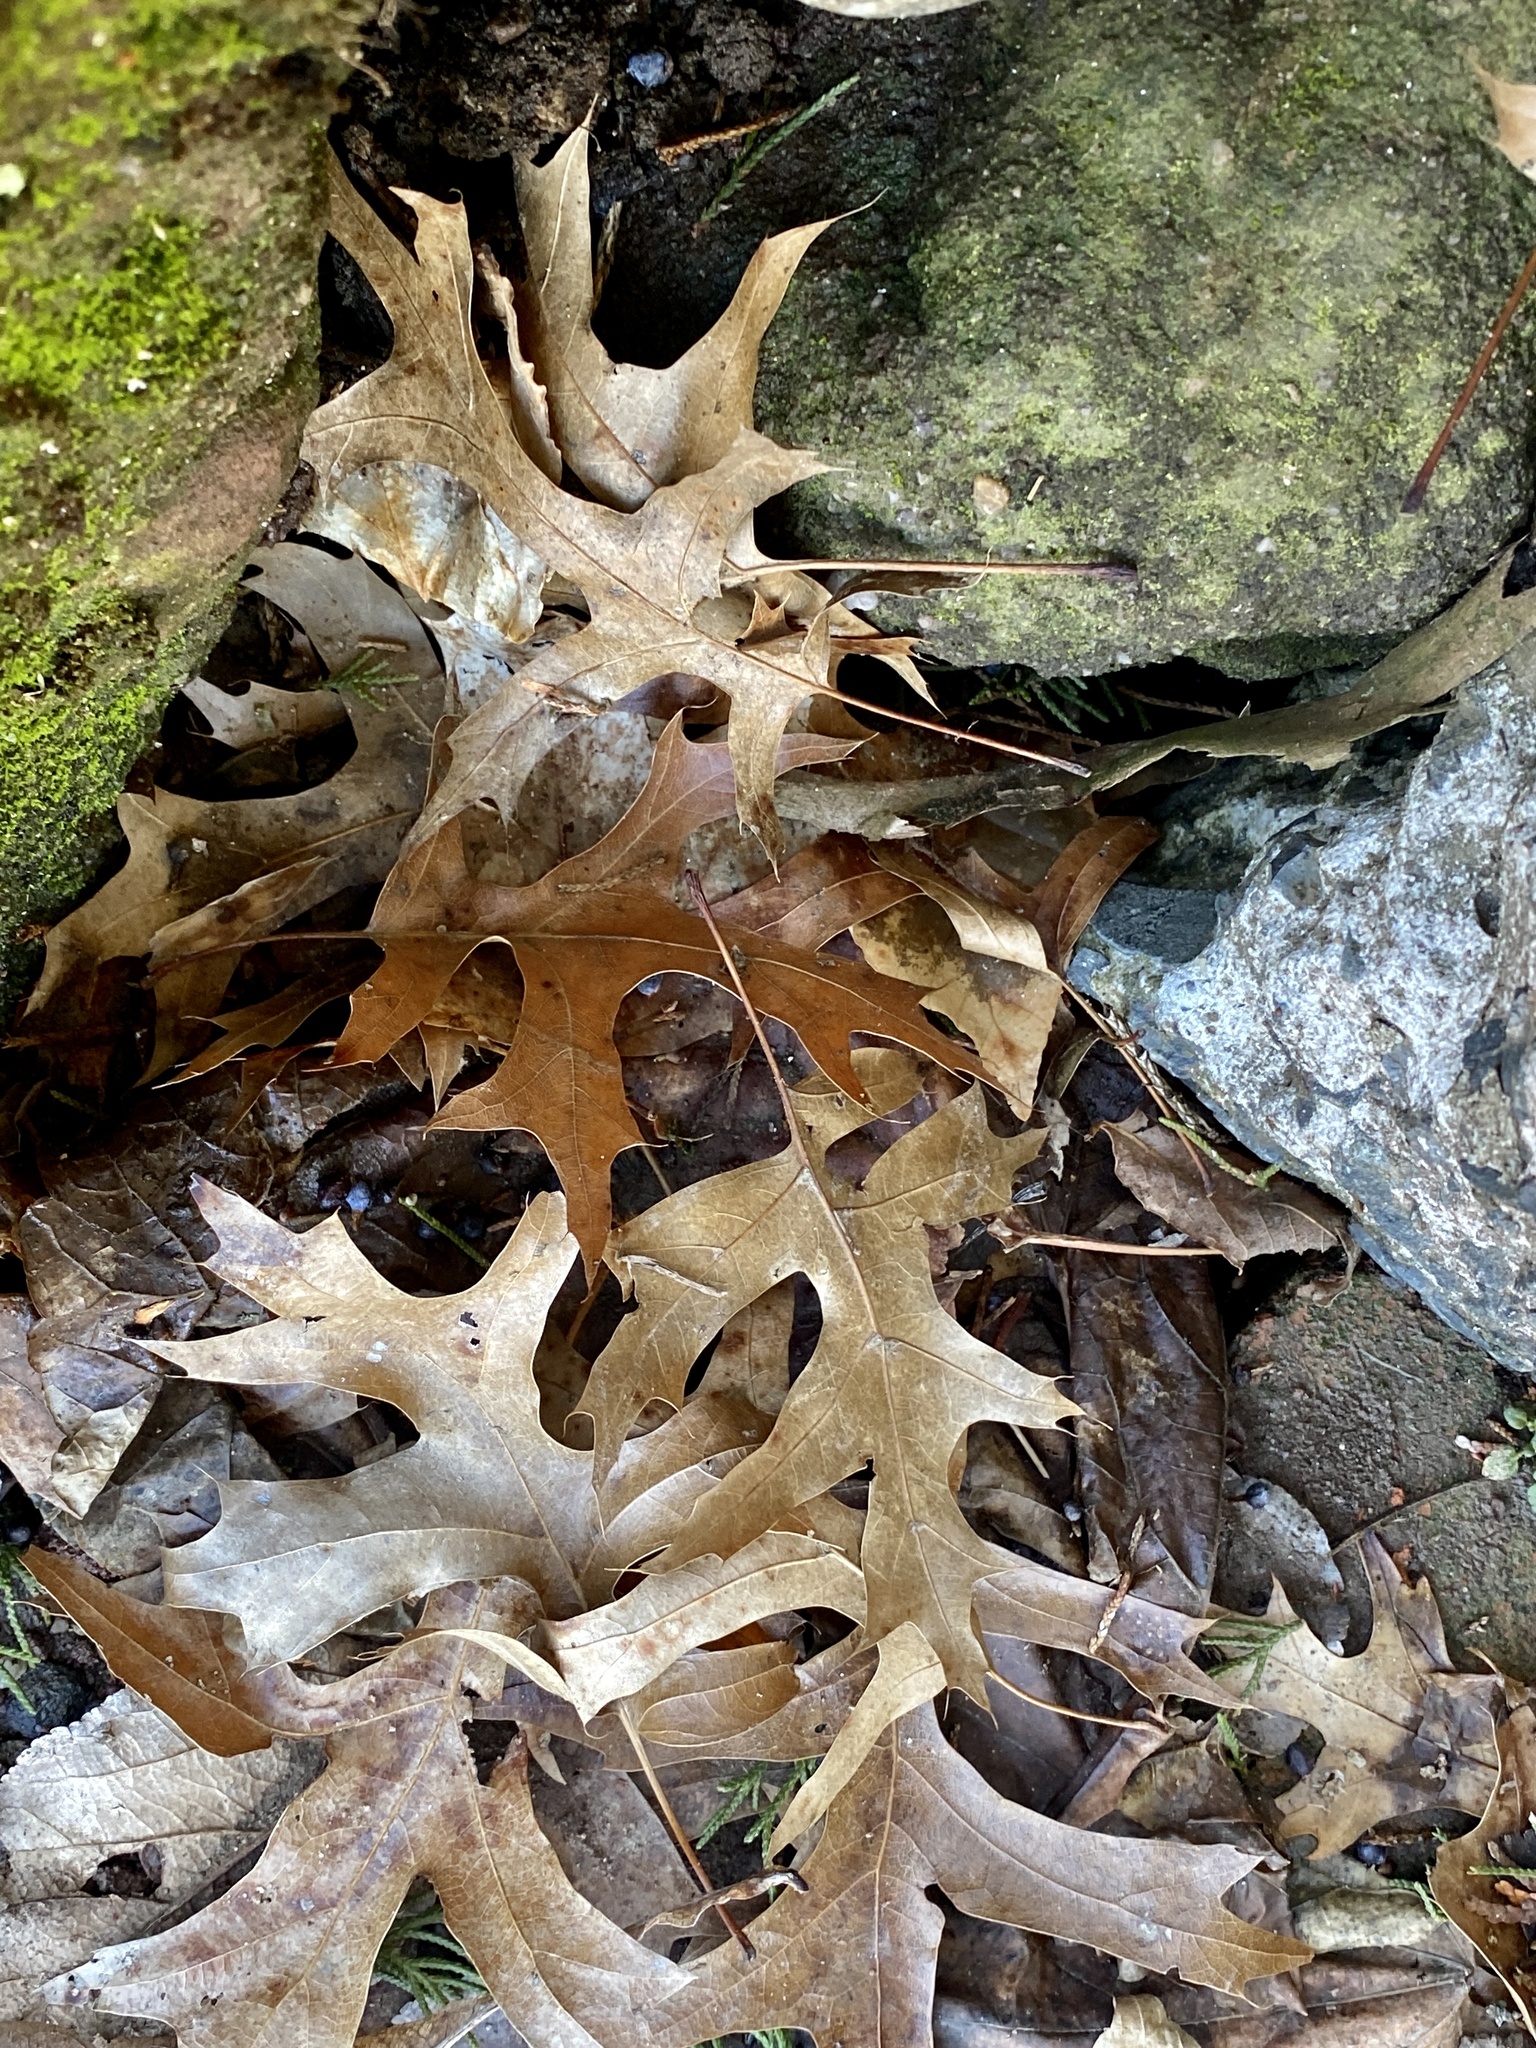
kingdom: Plantae
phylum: Tracheophyta
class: Magnoliopsida
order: Fagales
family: Fagaceae
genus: Quercus
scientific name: Quercus
